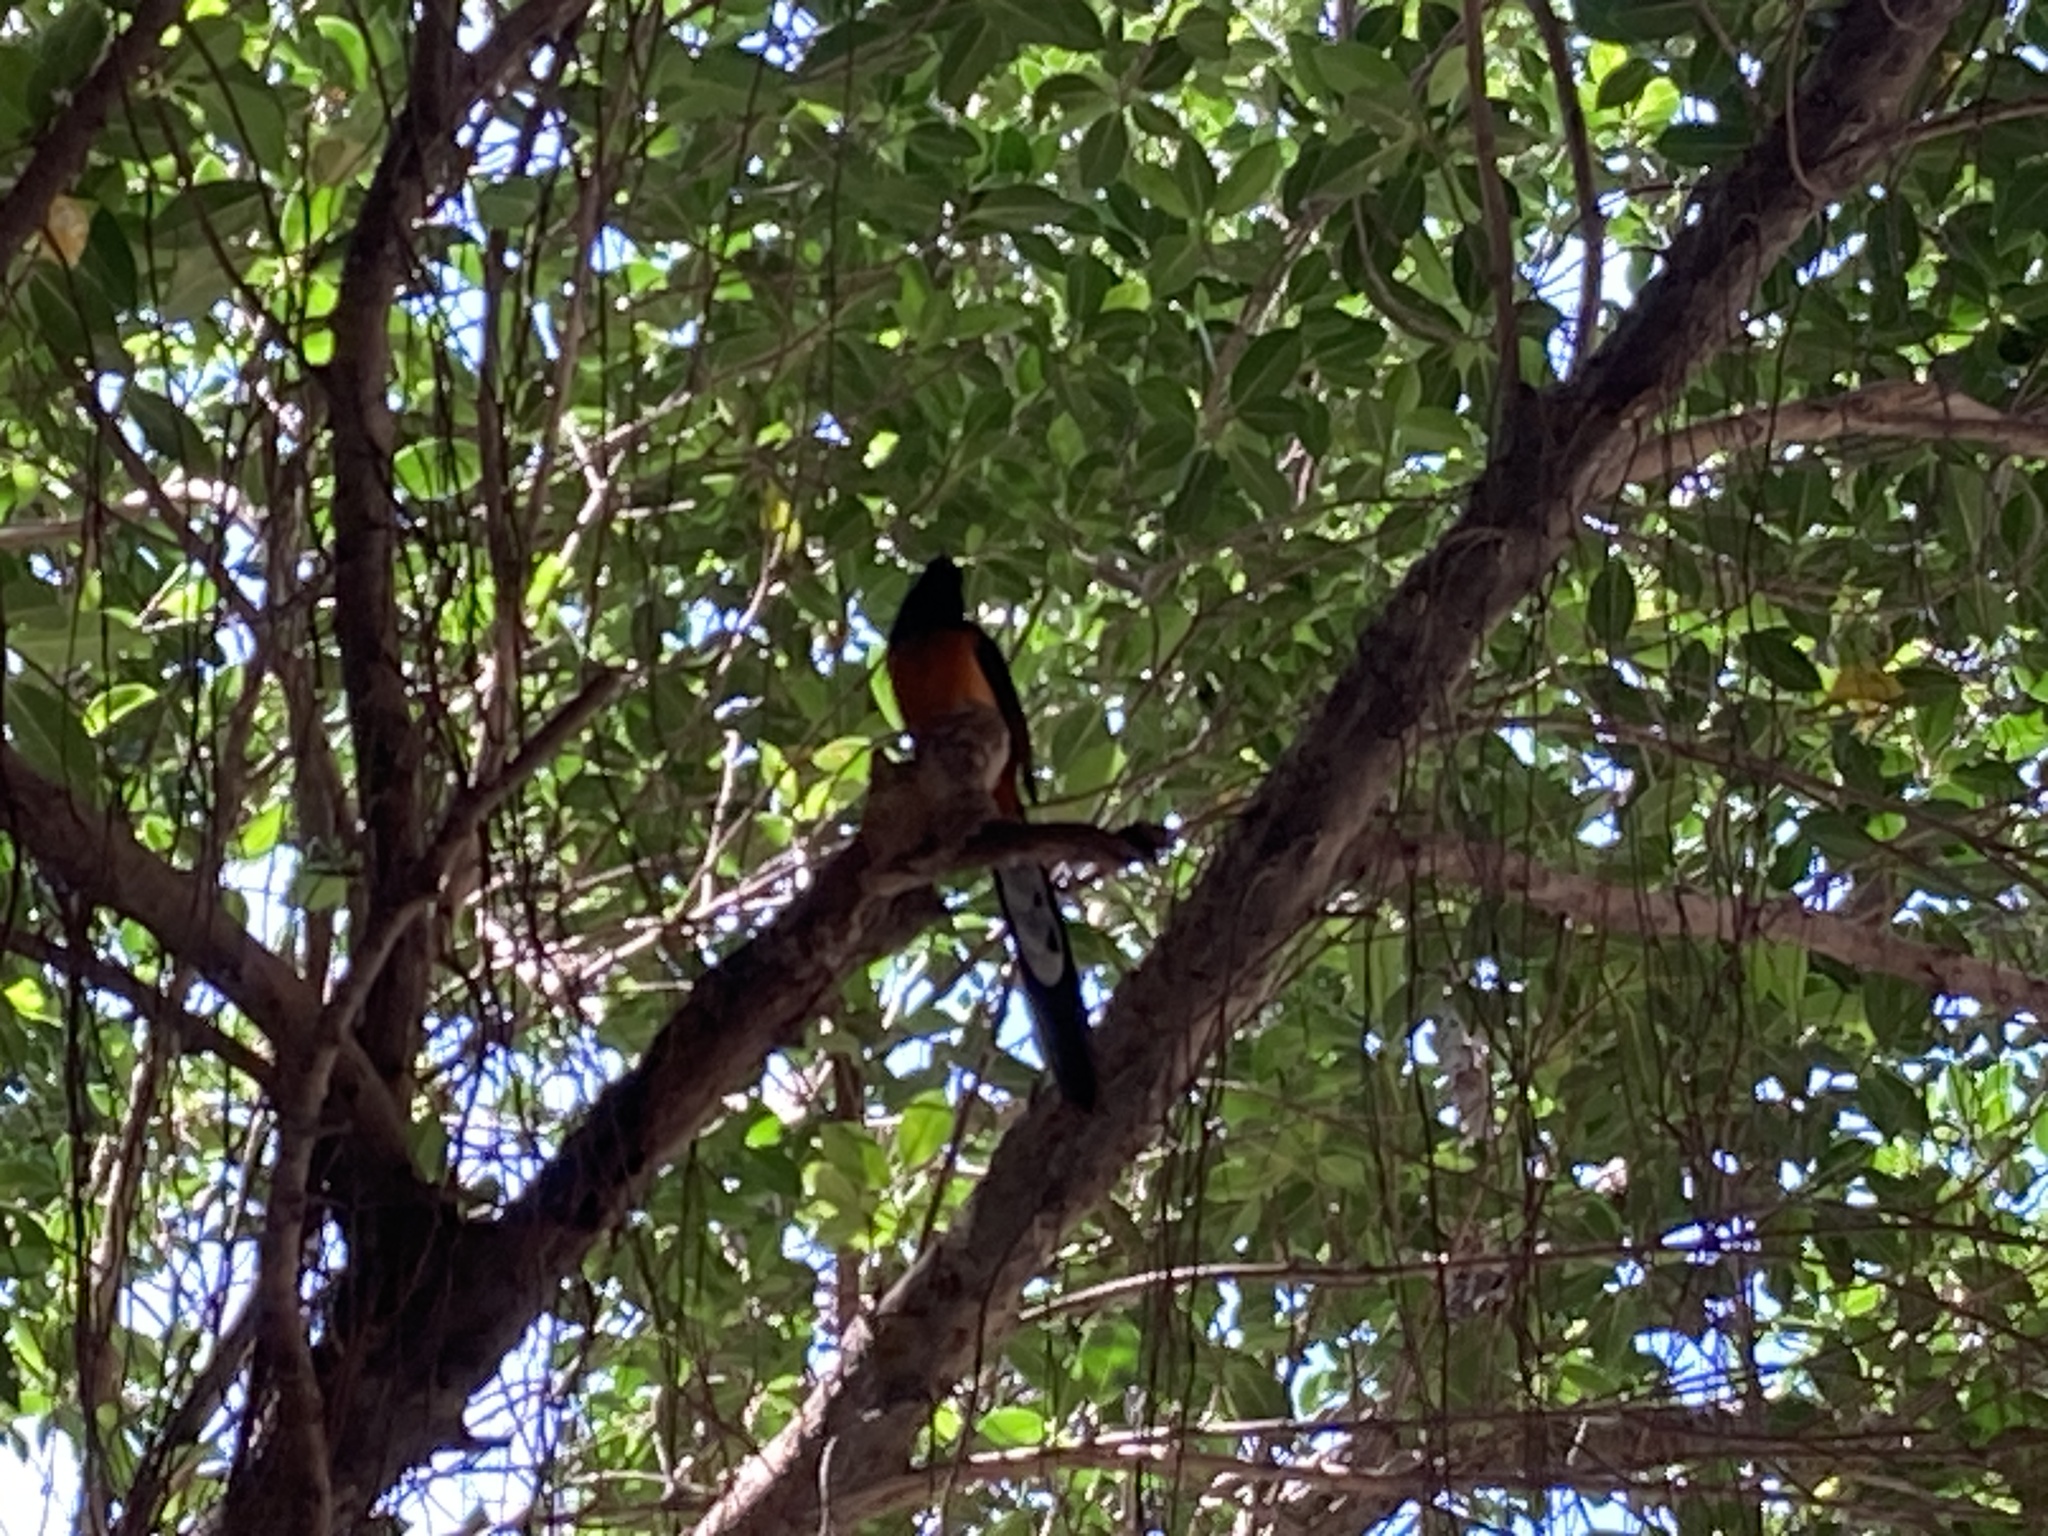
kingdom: Animalia
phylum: Chordata
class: Aves
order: Passeriformes
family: Muscicapidae
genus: Copsychus
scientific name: Copsychus malabaricus
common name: White-rumped shama
